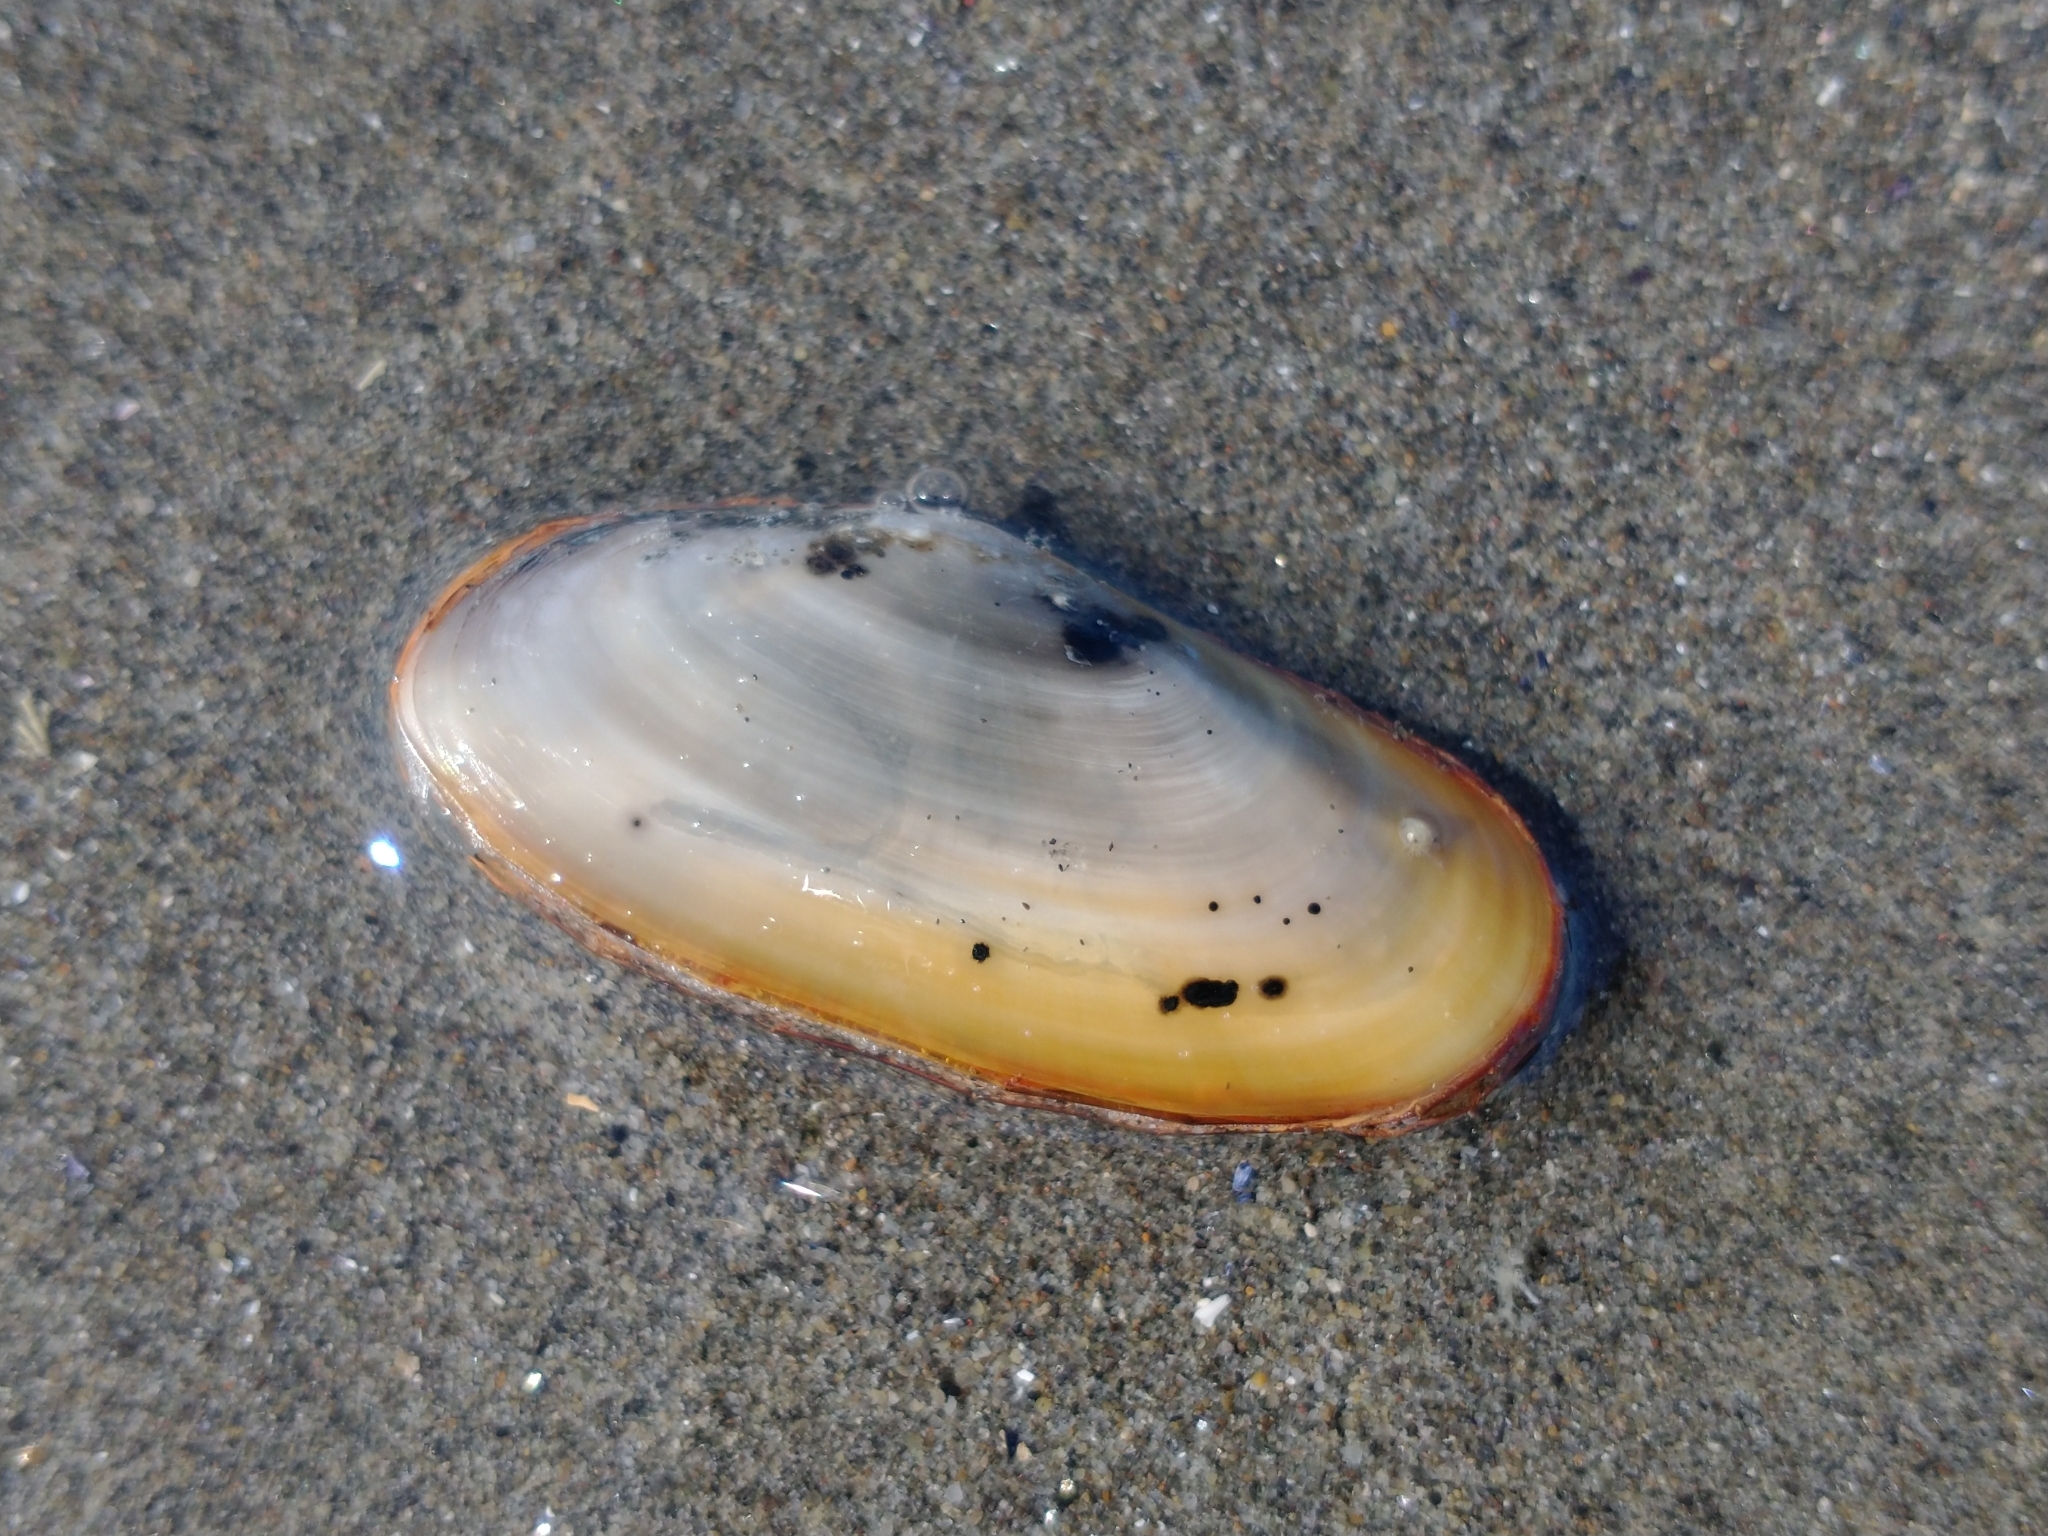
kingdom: Animalia
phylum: Mollusca
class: Bivalvia
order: Venerida
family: Mactridae
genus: Darina
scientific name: Darina solenoides
